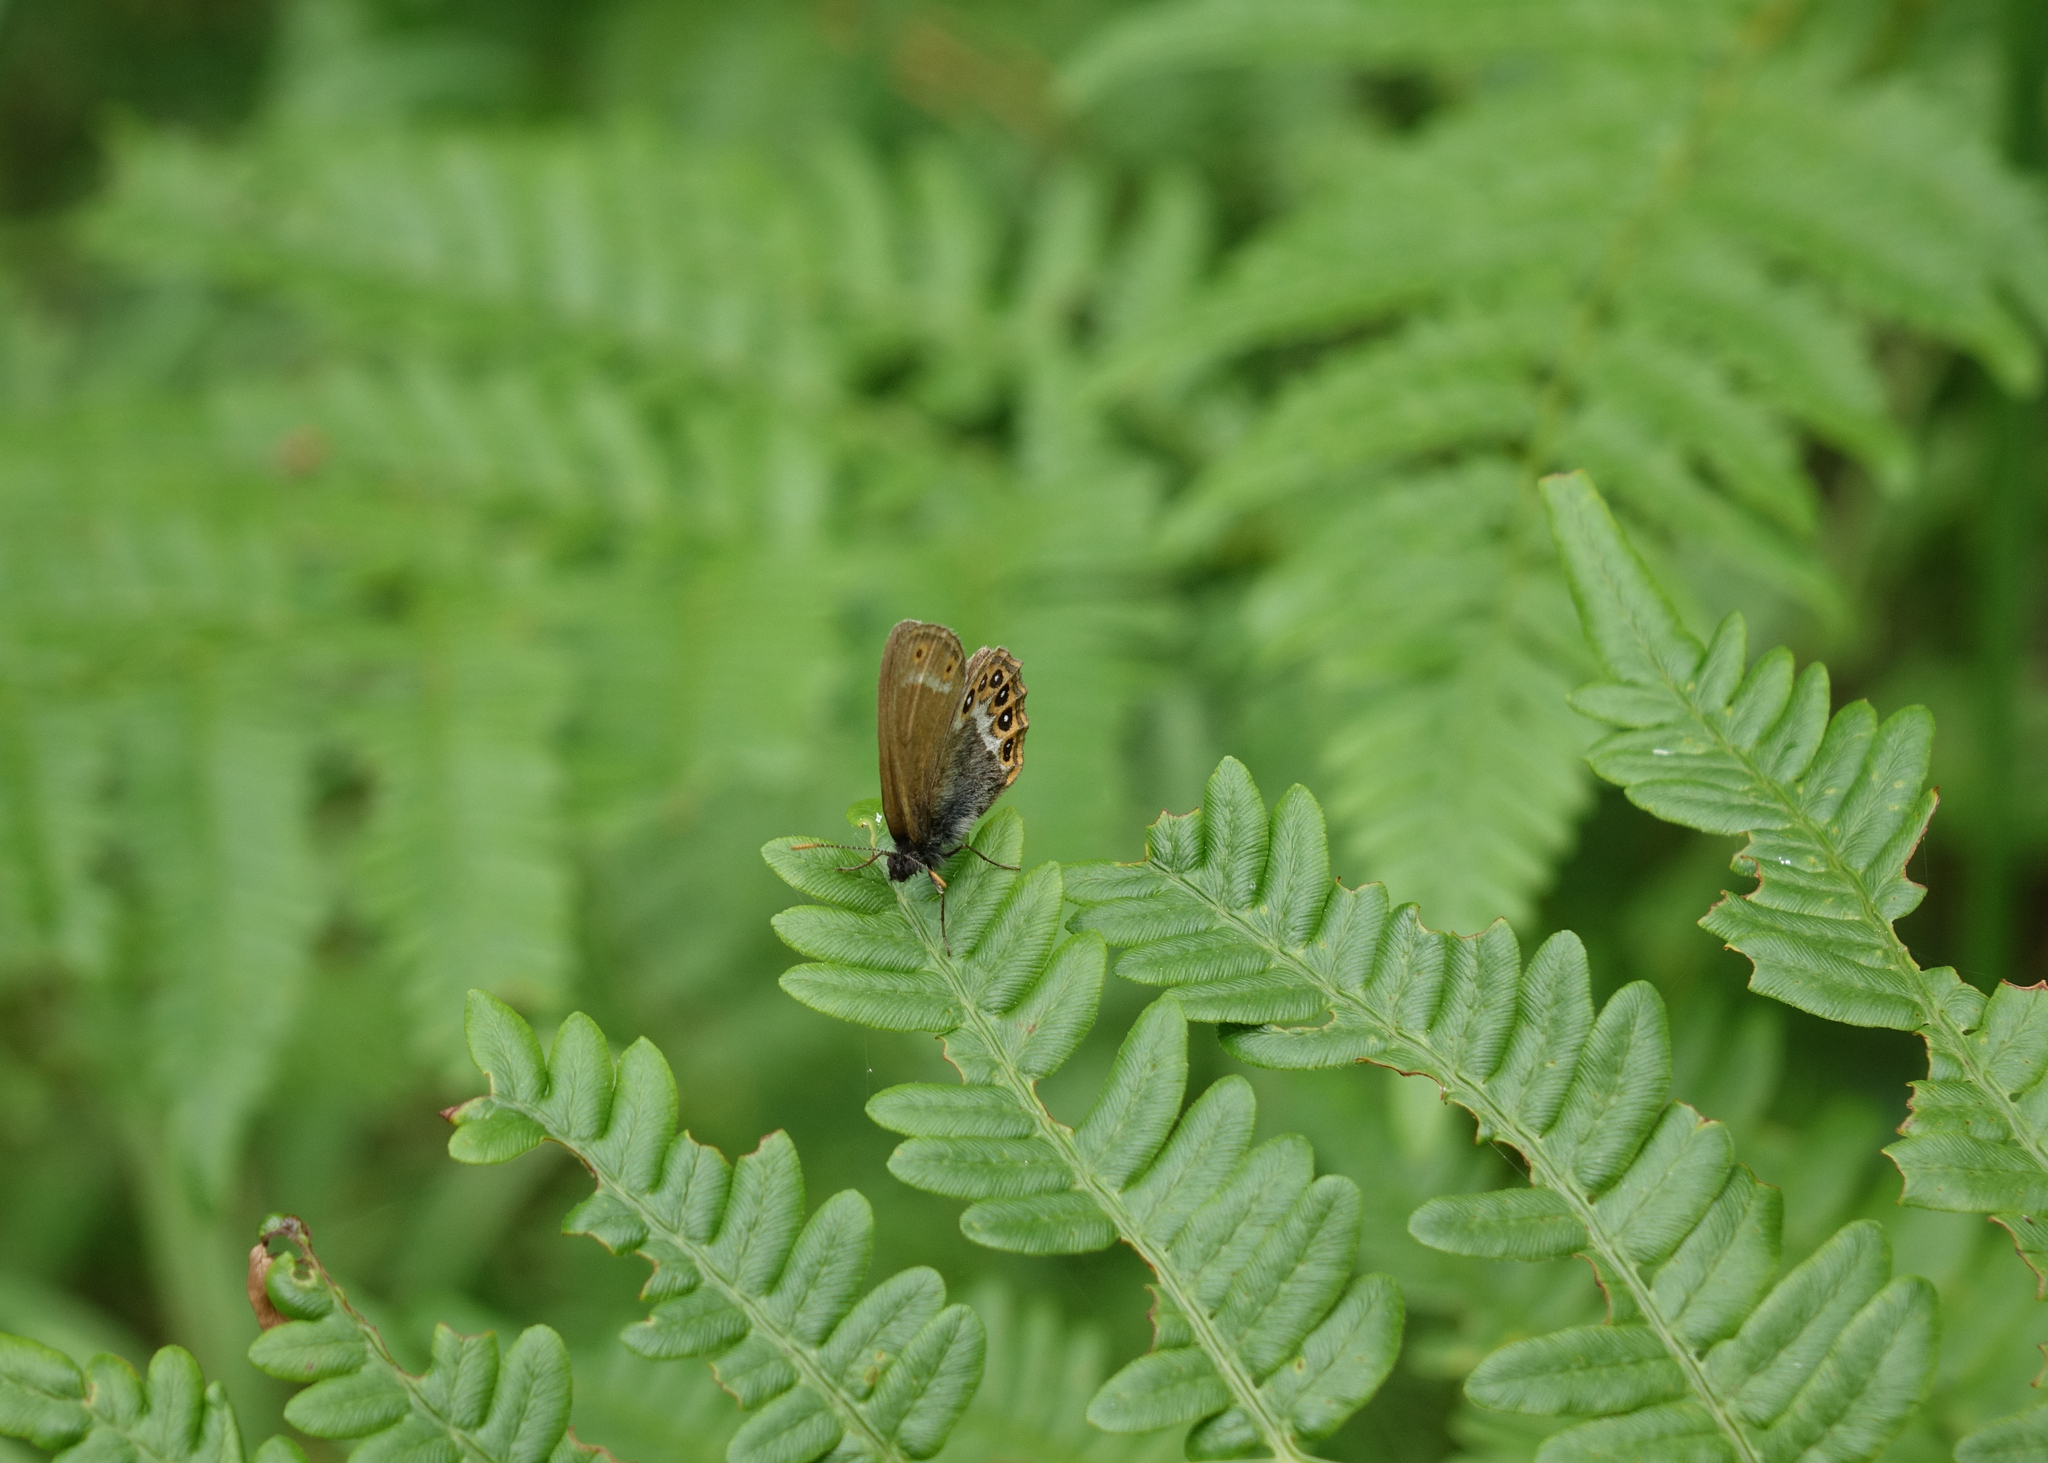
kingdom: Animalia
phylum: Arthropoda
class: Insecta
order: Lepidoptera
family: Nymphalidae
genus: Coenonympha
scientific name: Coenonympha hero
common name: Scarce heath
